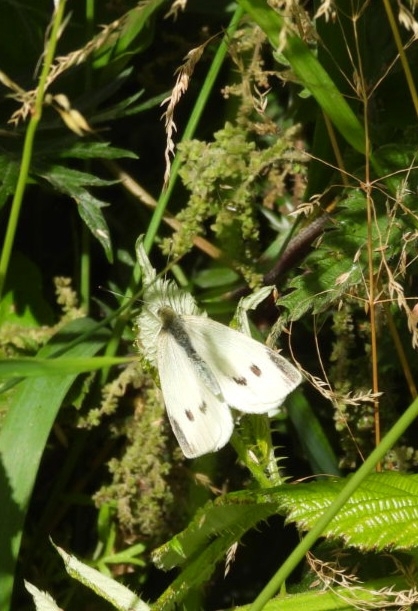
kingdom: Animalia
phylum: Arthropoda
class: Insecta
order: Lepidoptera
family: Pieridae
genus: Pieris
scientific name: Pieris rapae
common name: Small white
